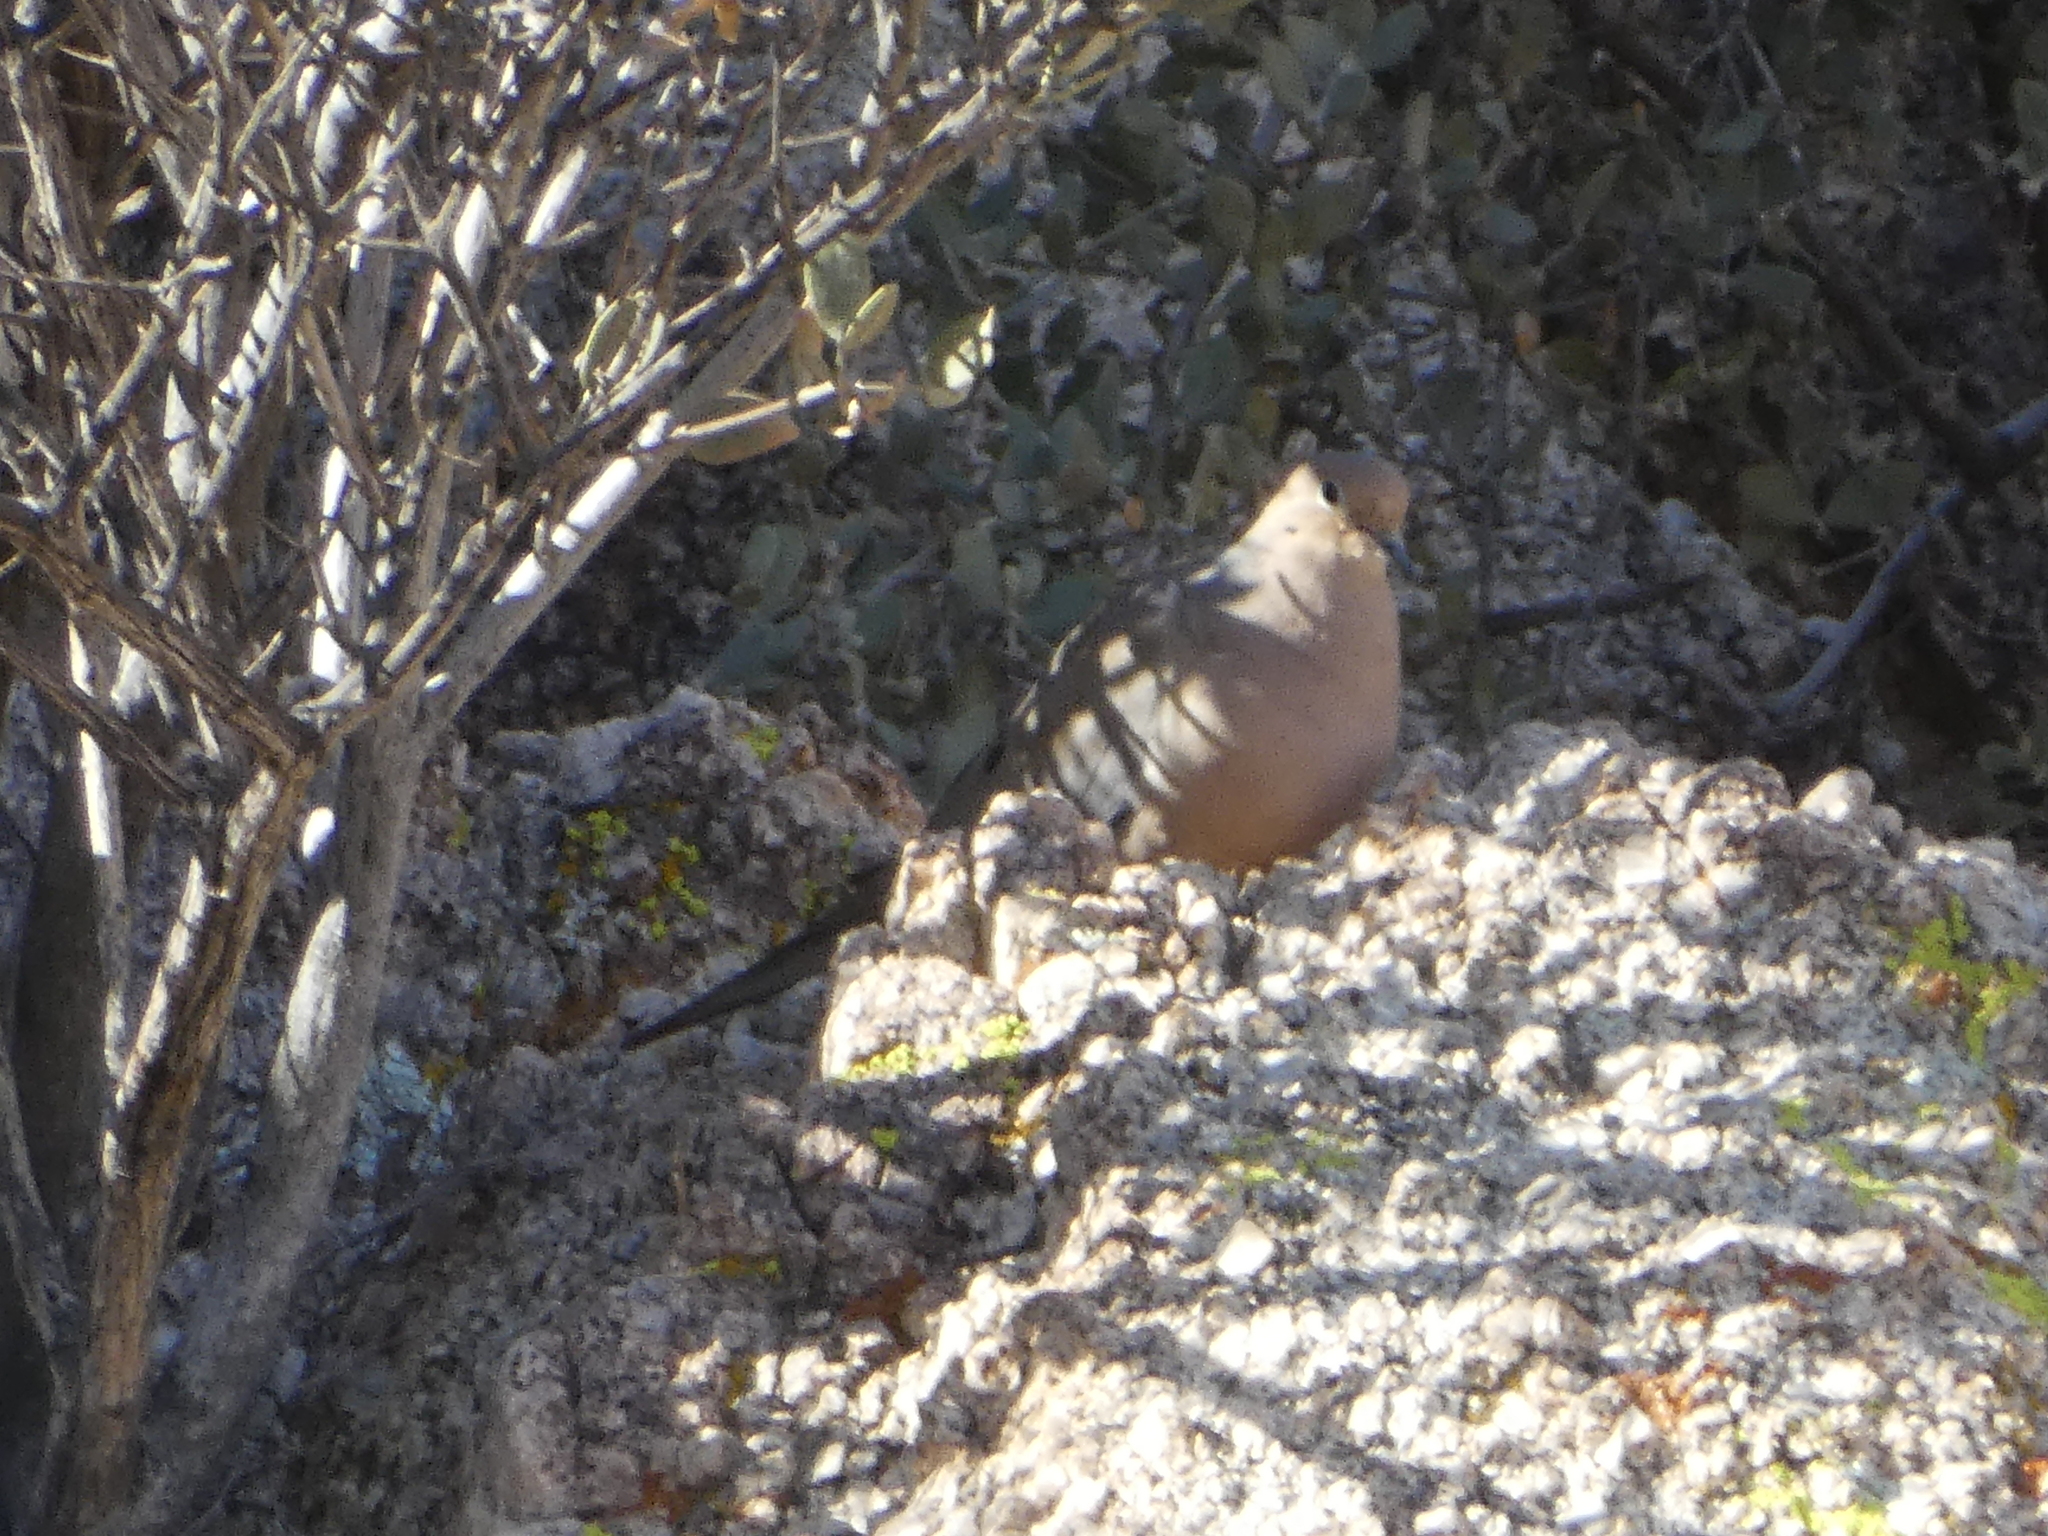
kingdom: Animalia
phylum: Chordata
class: Aves
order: Columbiformes
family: Columbidae
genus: Zenaida
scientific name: Zenaida macroura
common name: Mourning dove
